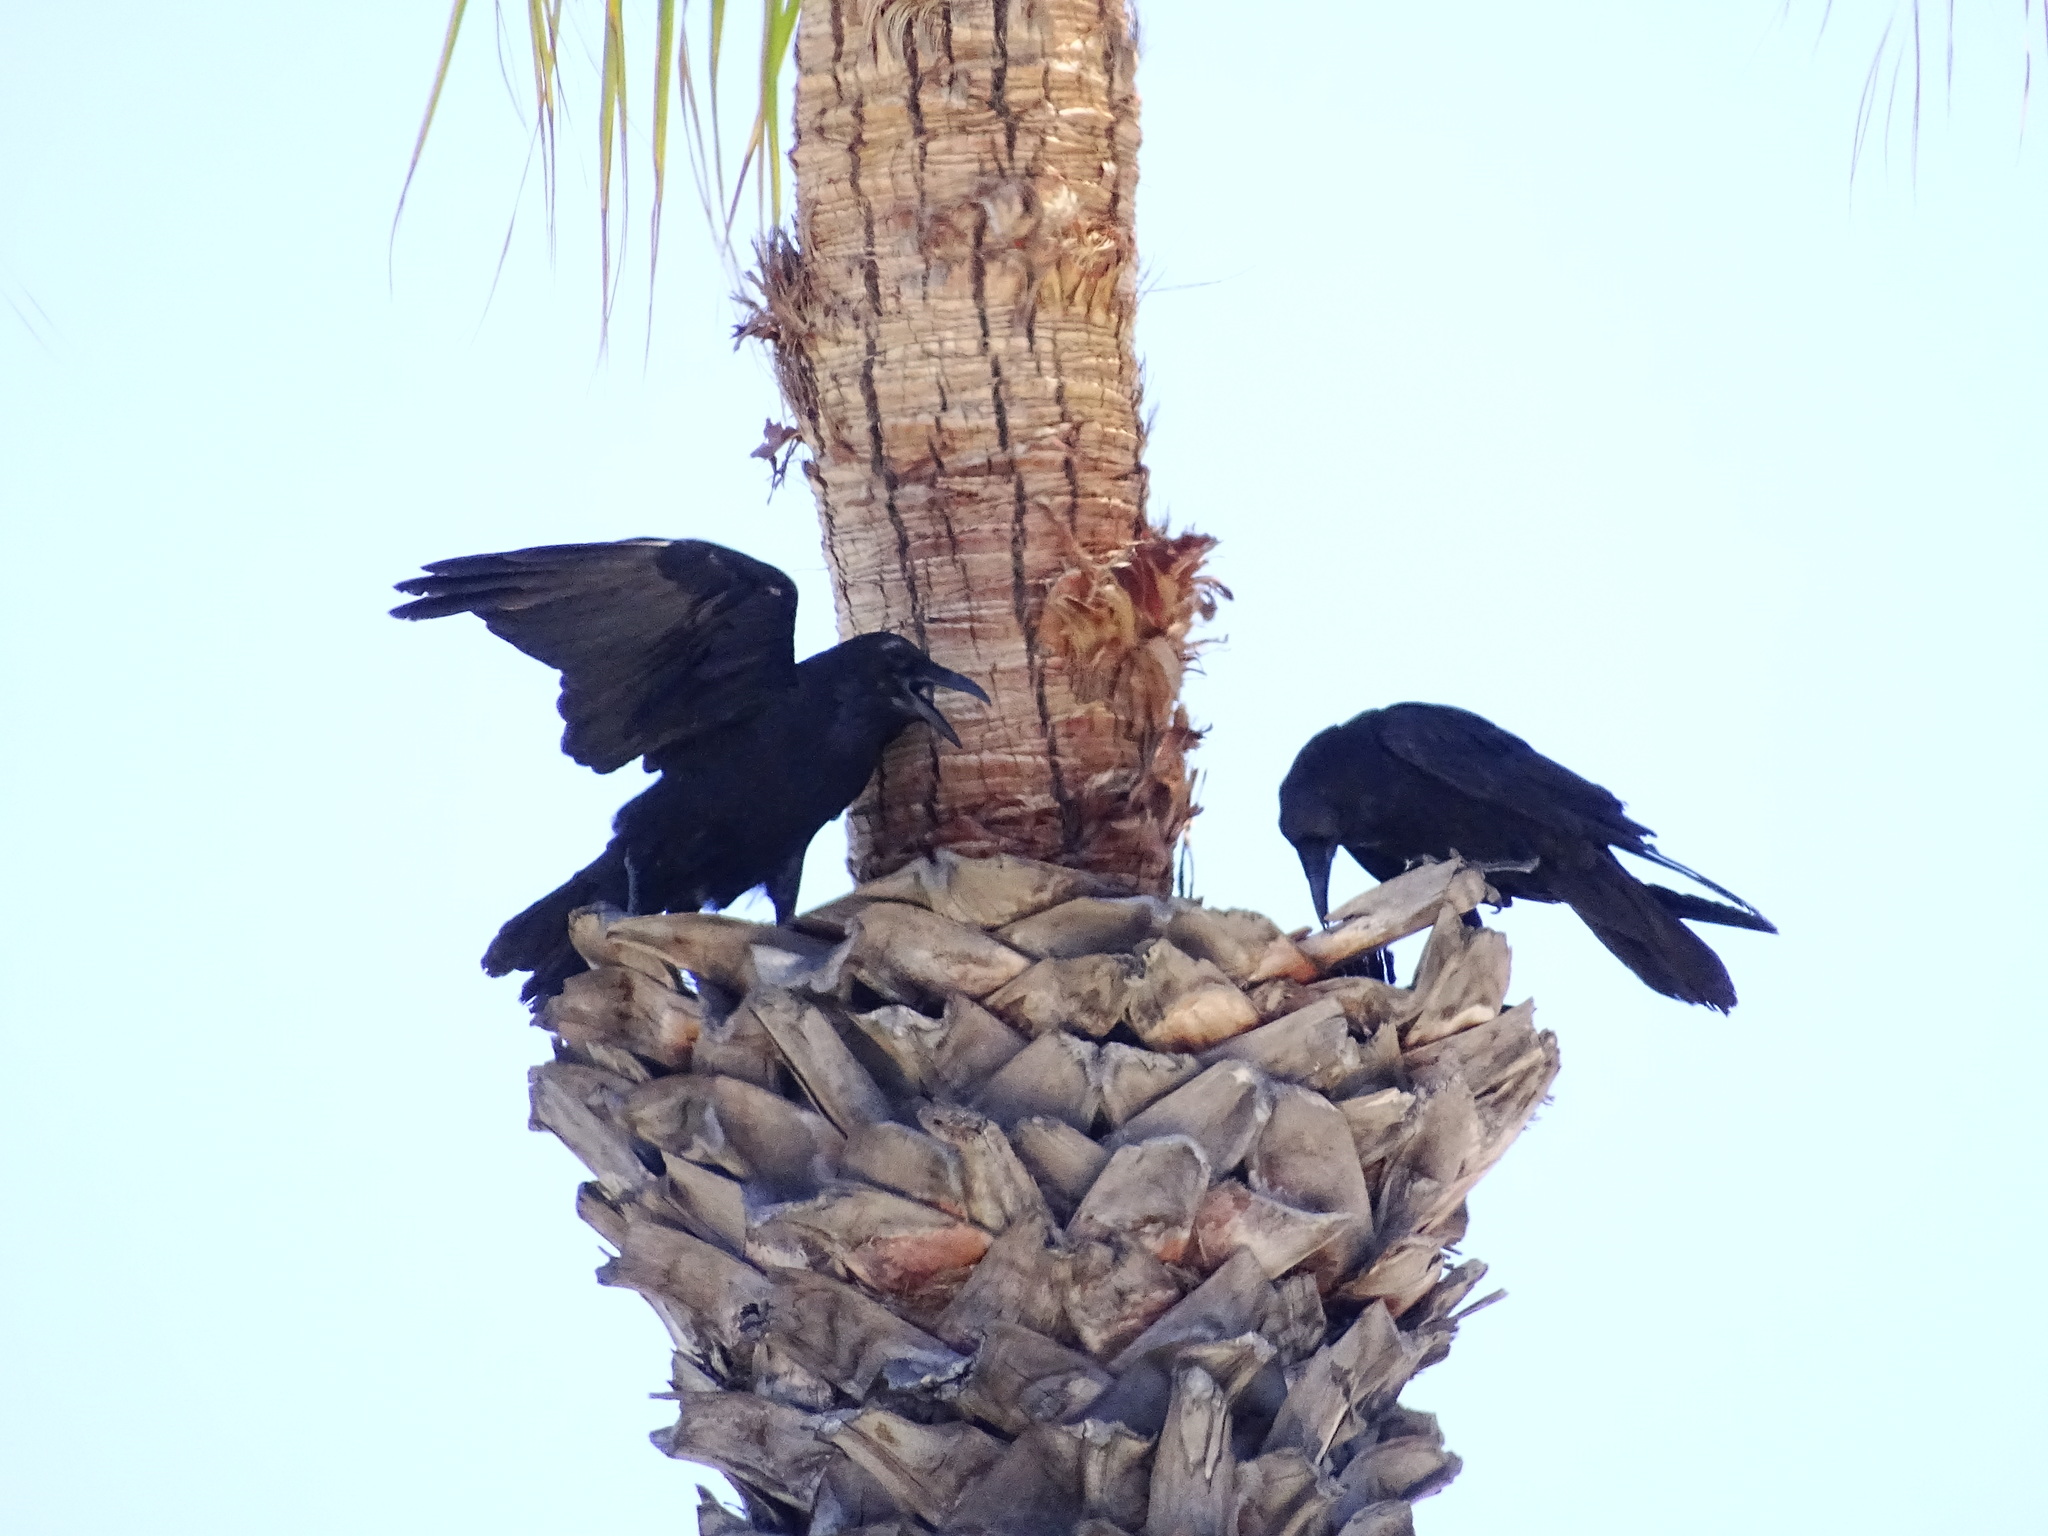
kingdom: Animalia
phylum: Chordata
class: Aves
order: Passeriformes
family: Corvidae
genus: Corvus
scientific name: Corvus corax
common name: Common raven
